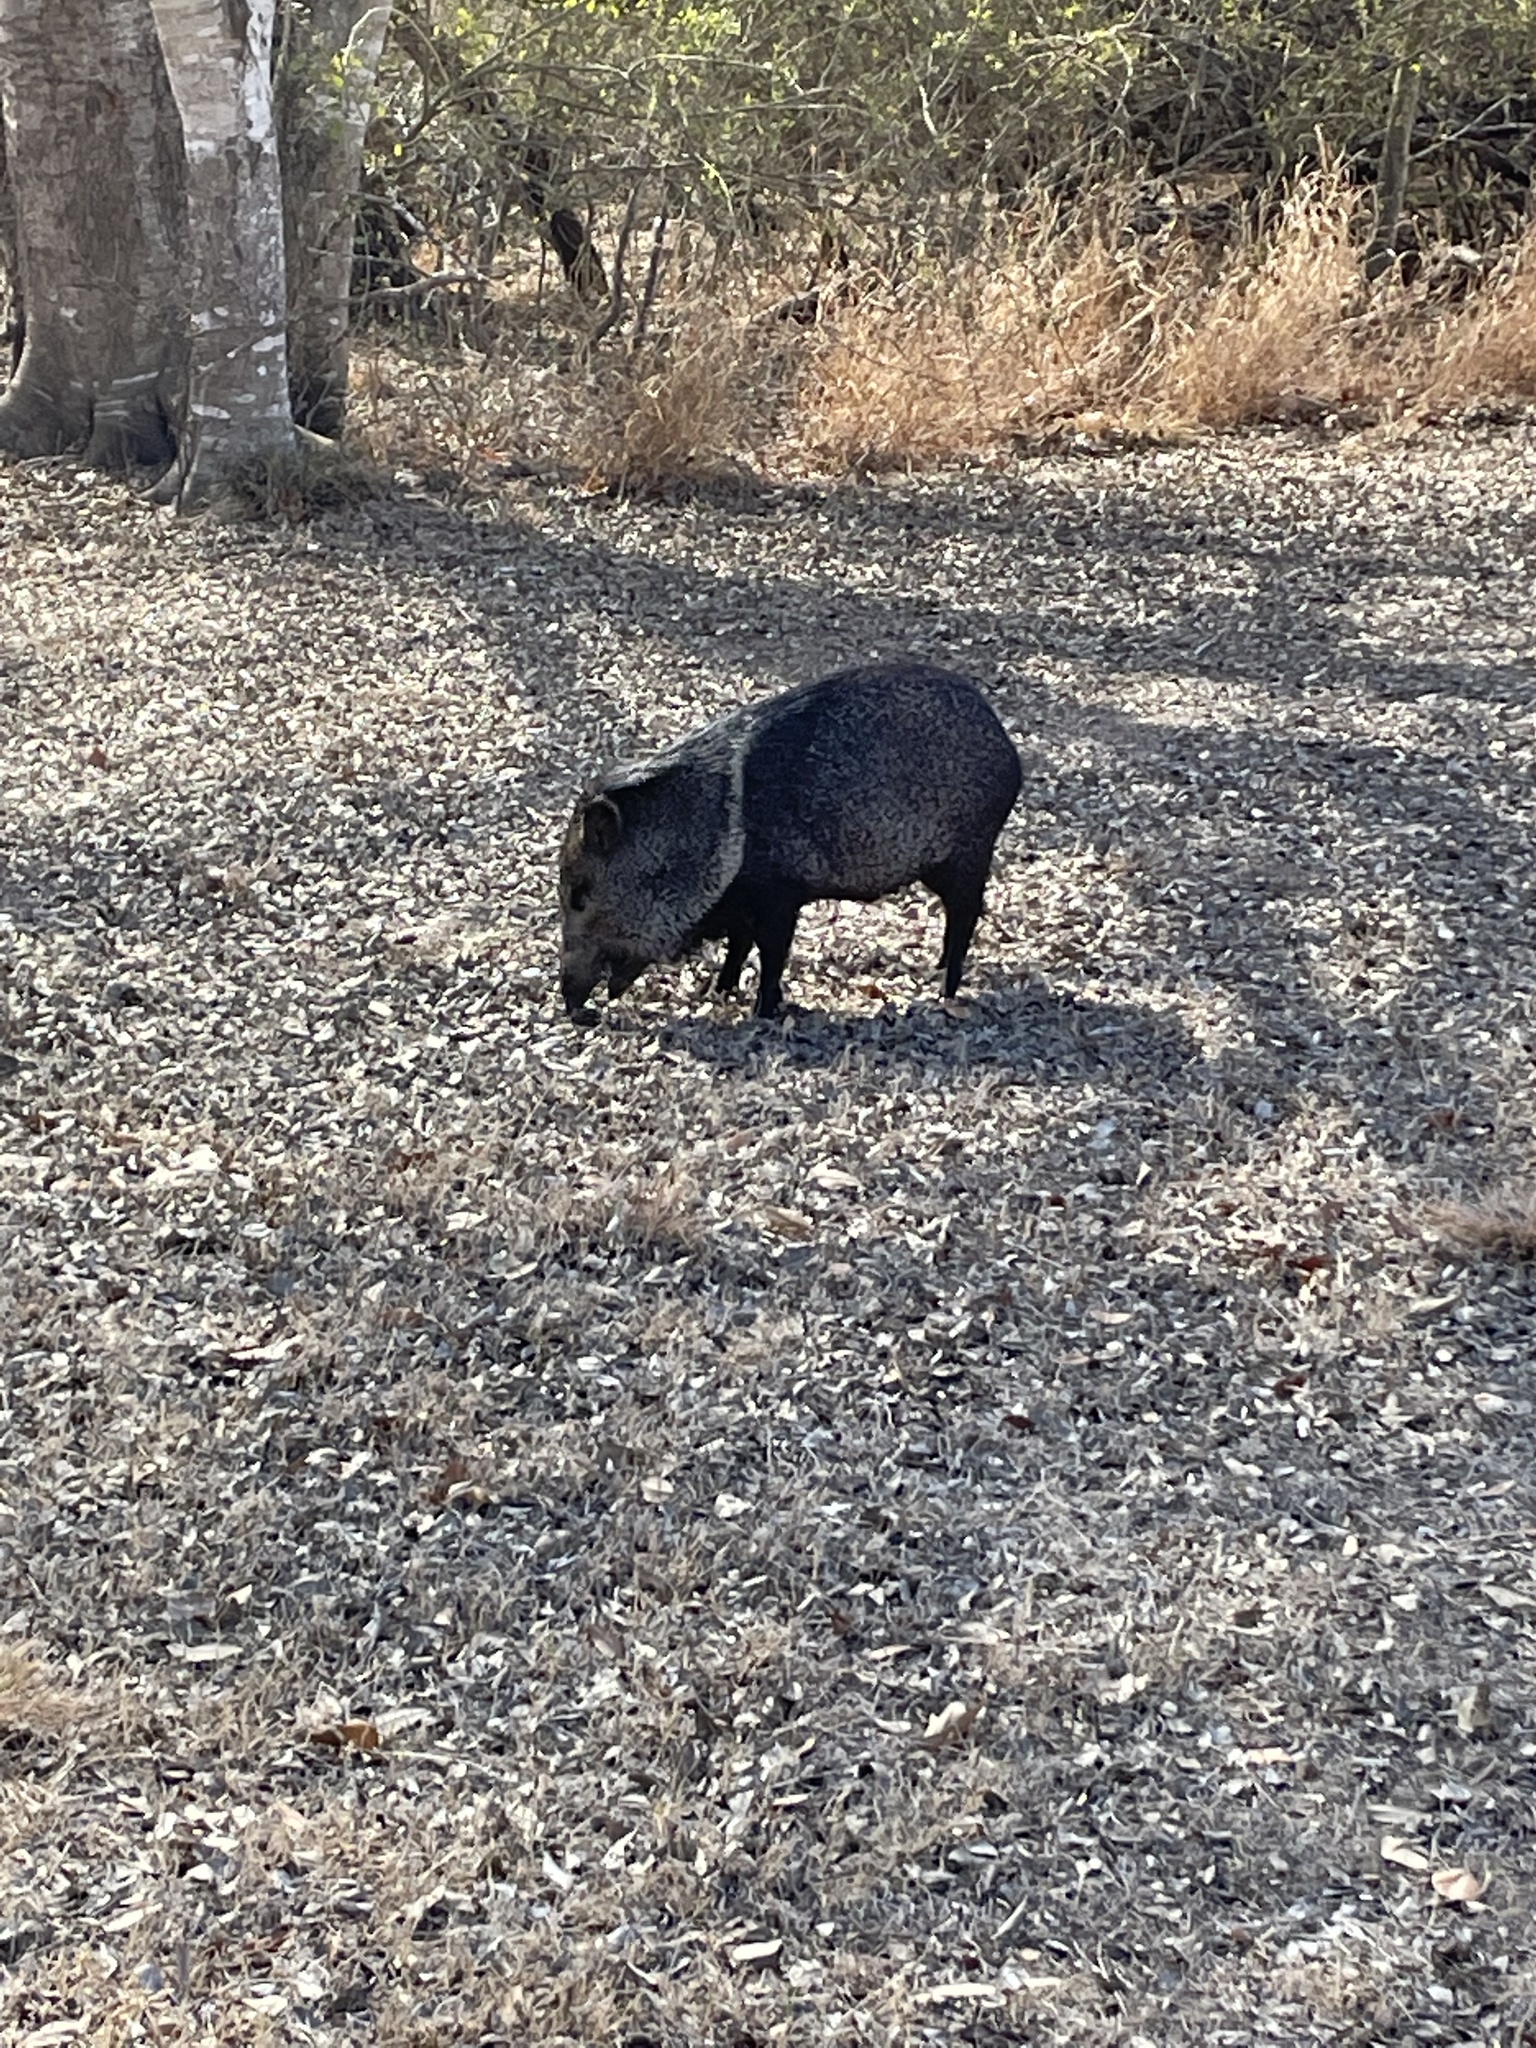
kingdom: Animalia
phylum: Chordata
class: Mammalia
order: Artiodactyla
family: Tayassuidae
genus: Pecari
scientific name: Pecari tajacu
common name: Collared peccary
